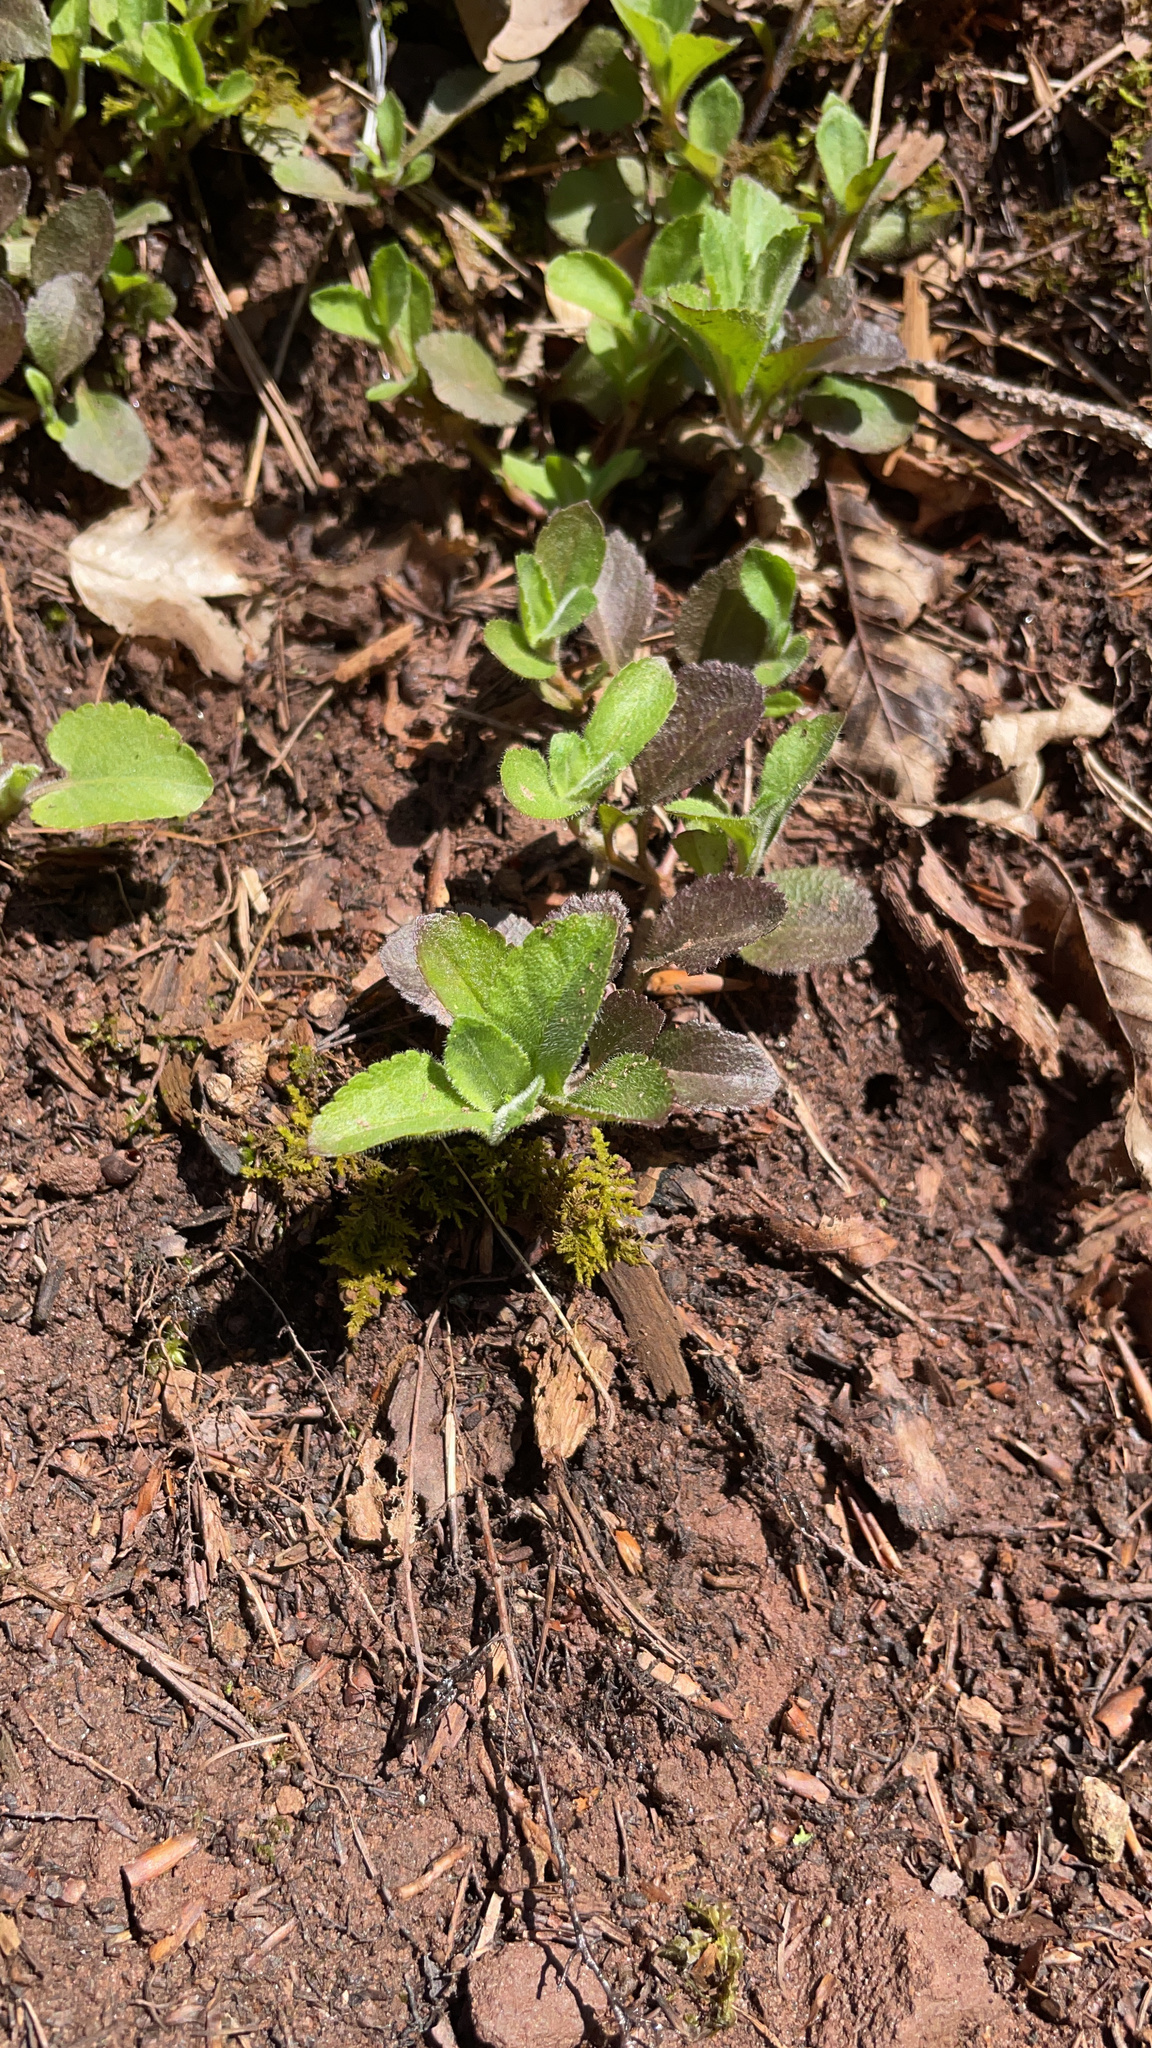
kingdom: Plantae
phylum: Tracheophyta
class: Magnoliopsida
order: Lamiales
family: Plantaginaceae
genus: Veronica
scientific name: Veronica officinalis
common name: Common speedwell
